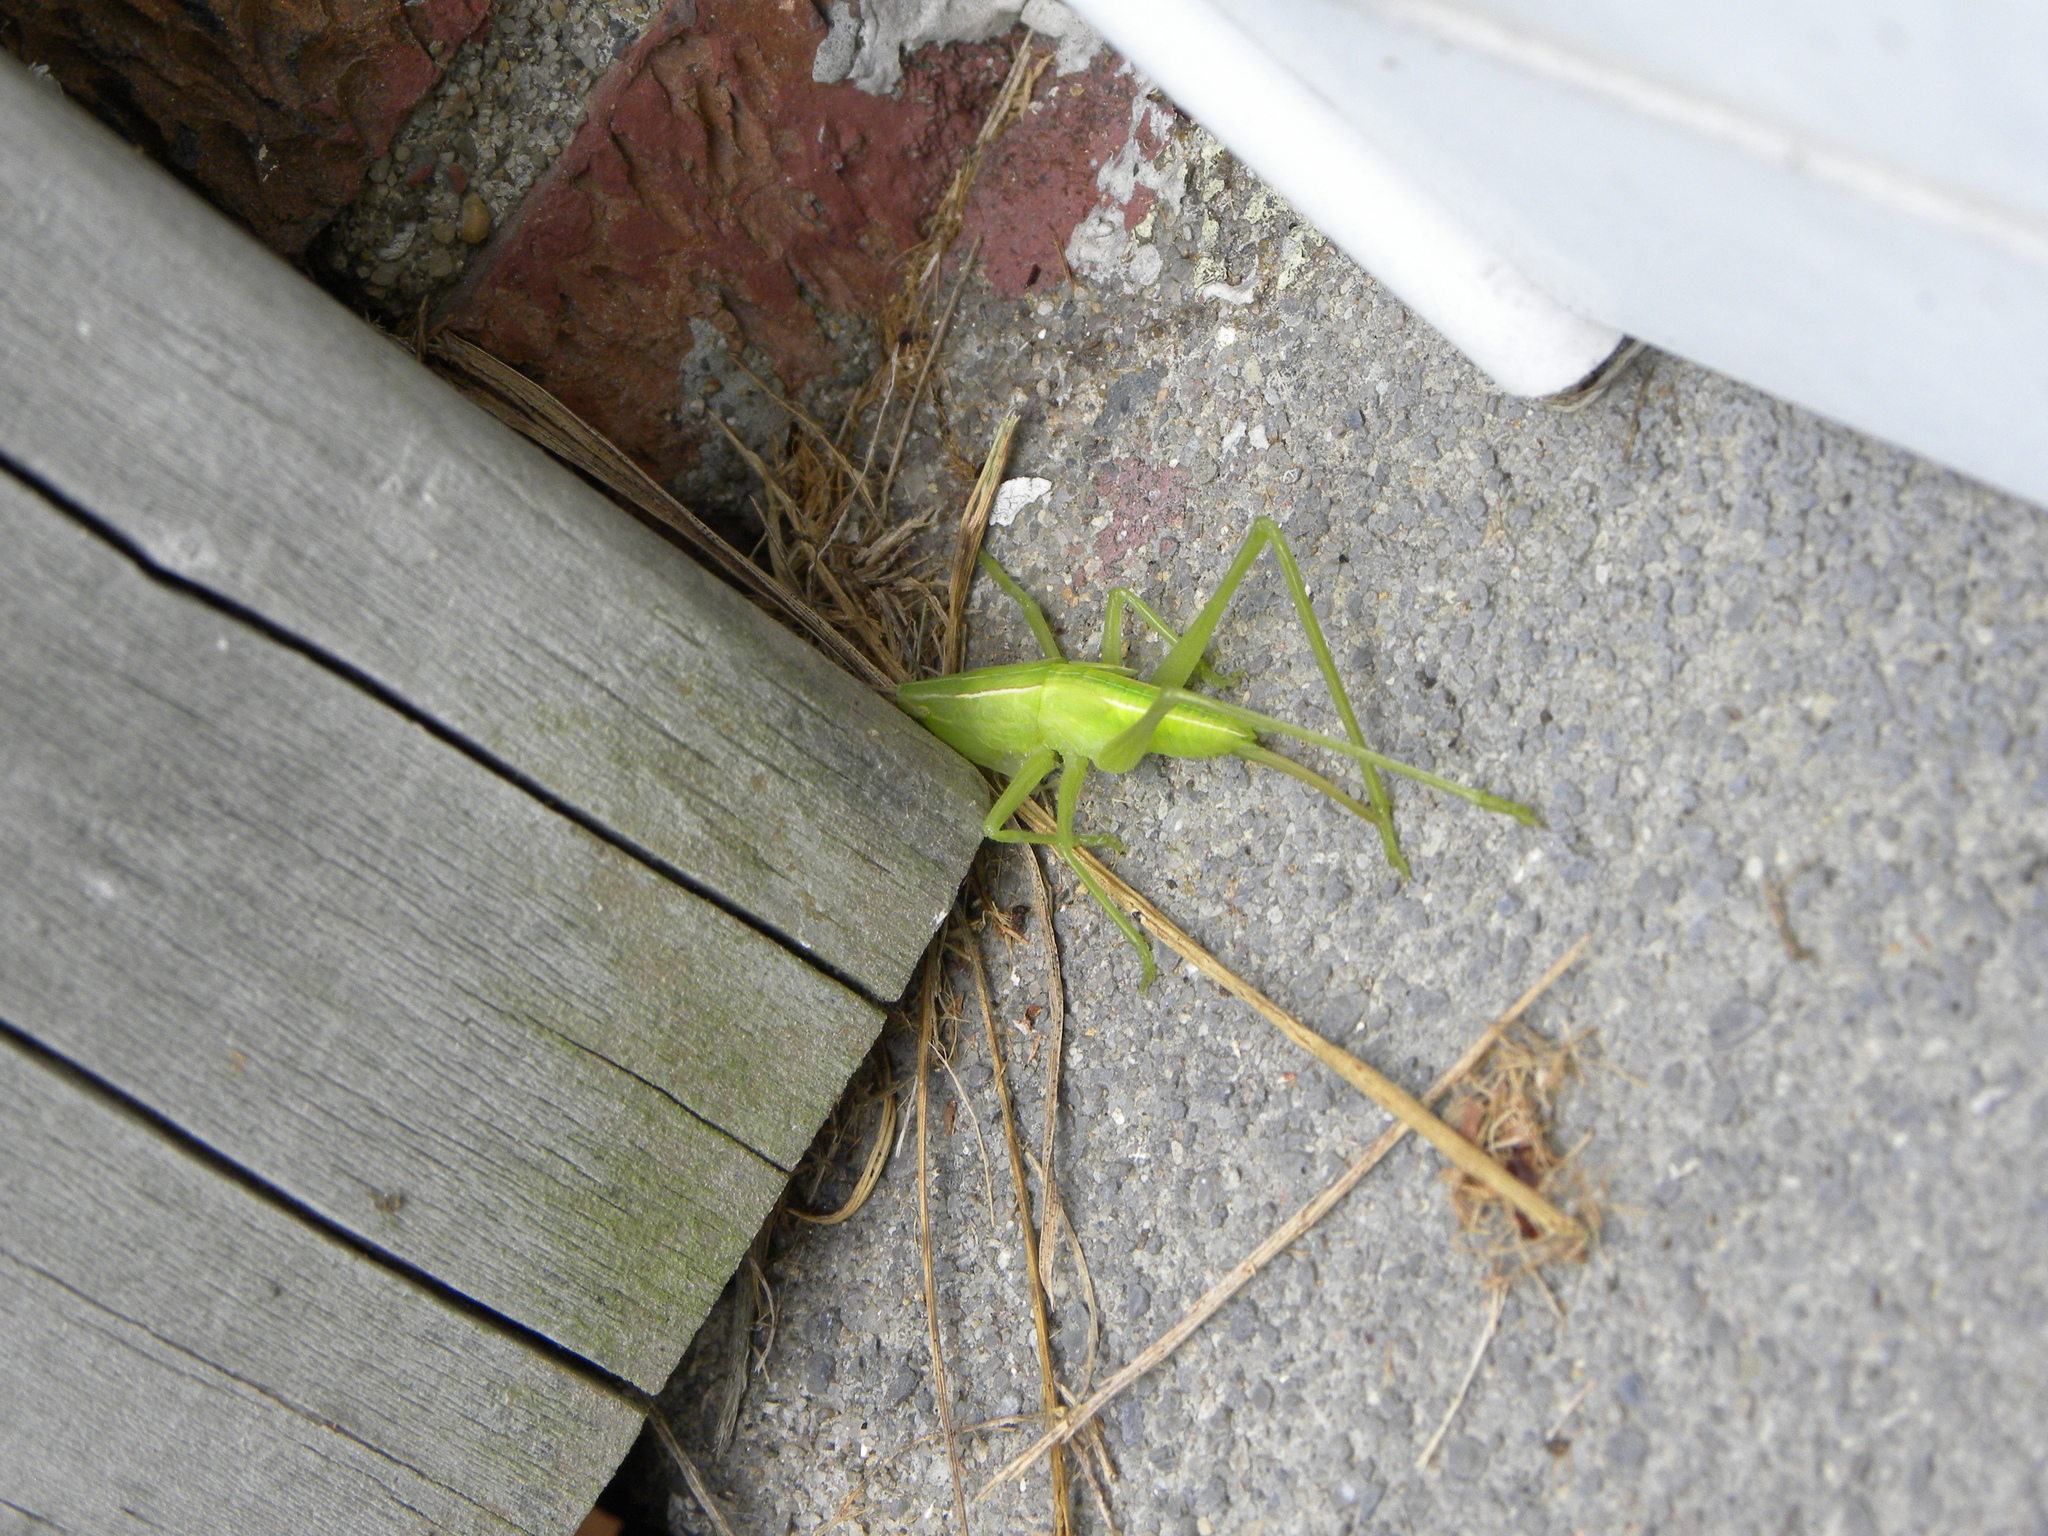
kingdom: Animalia
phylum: Arthropoda
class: Insecta
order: Hymenoptera
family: Sphecidae
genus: Isodontia
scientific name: Isodontia auripes
